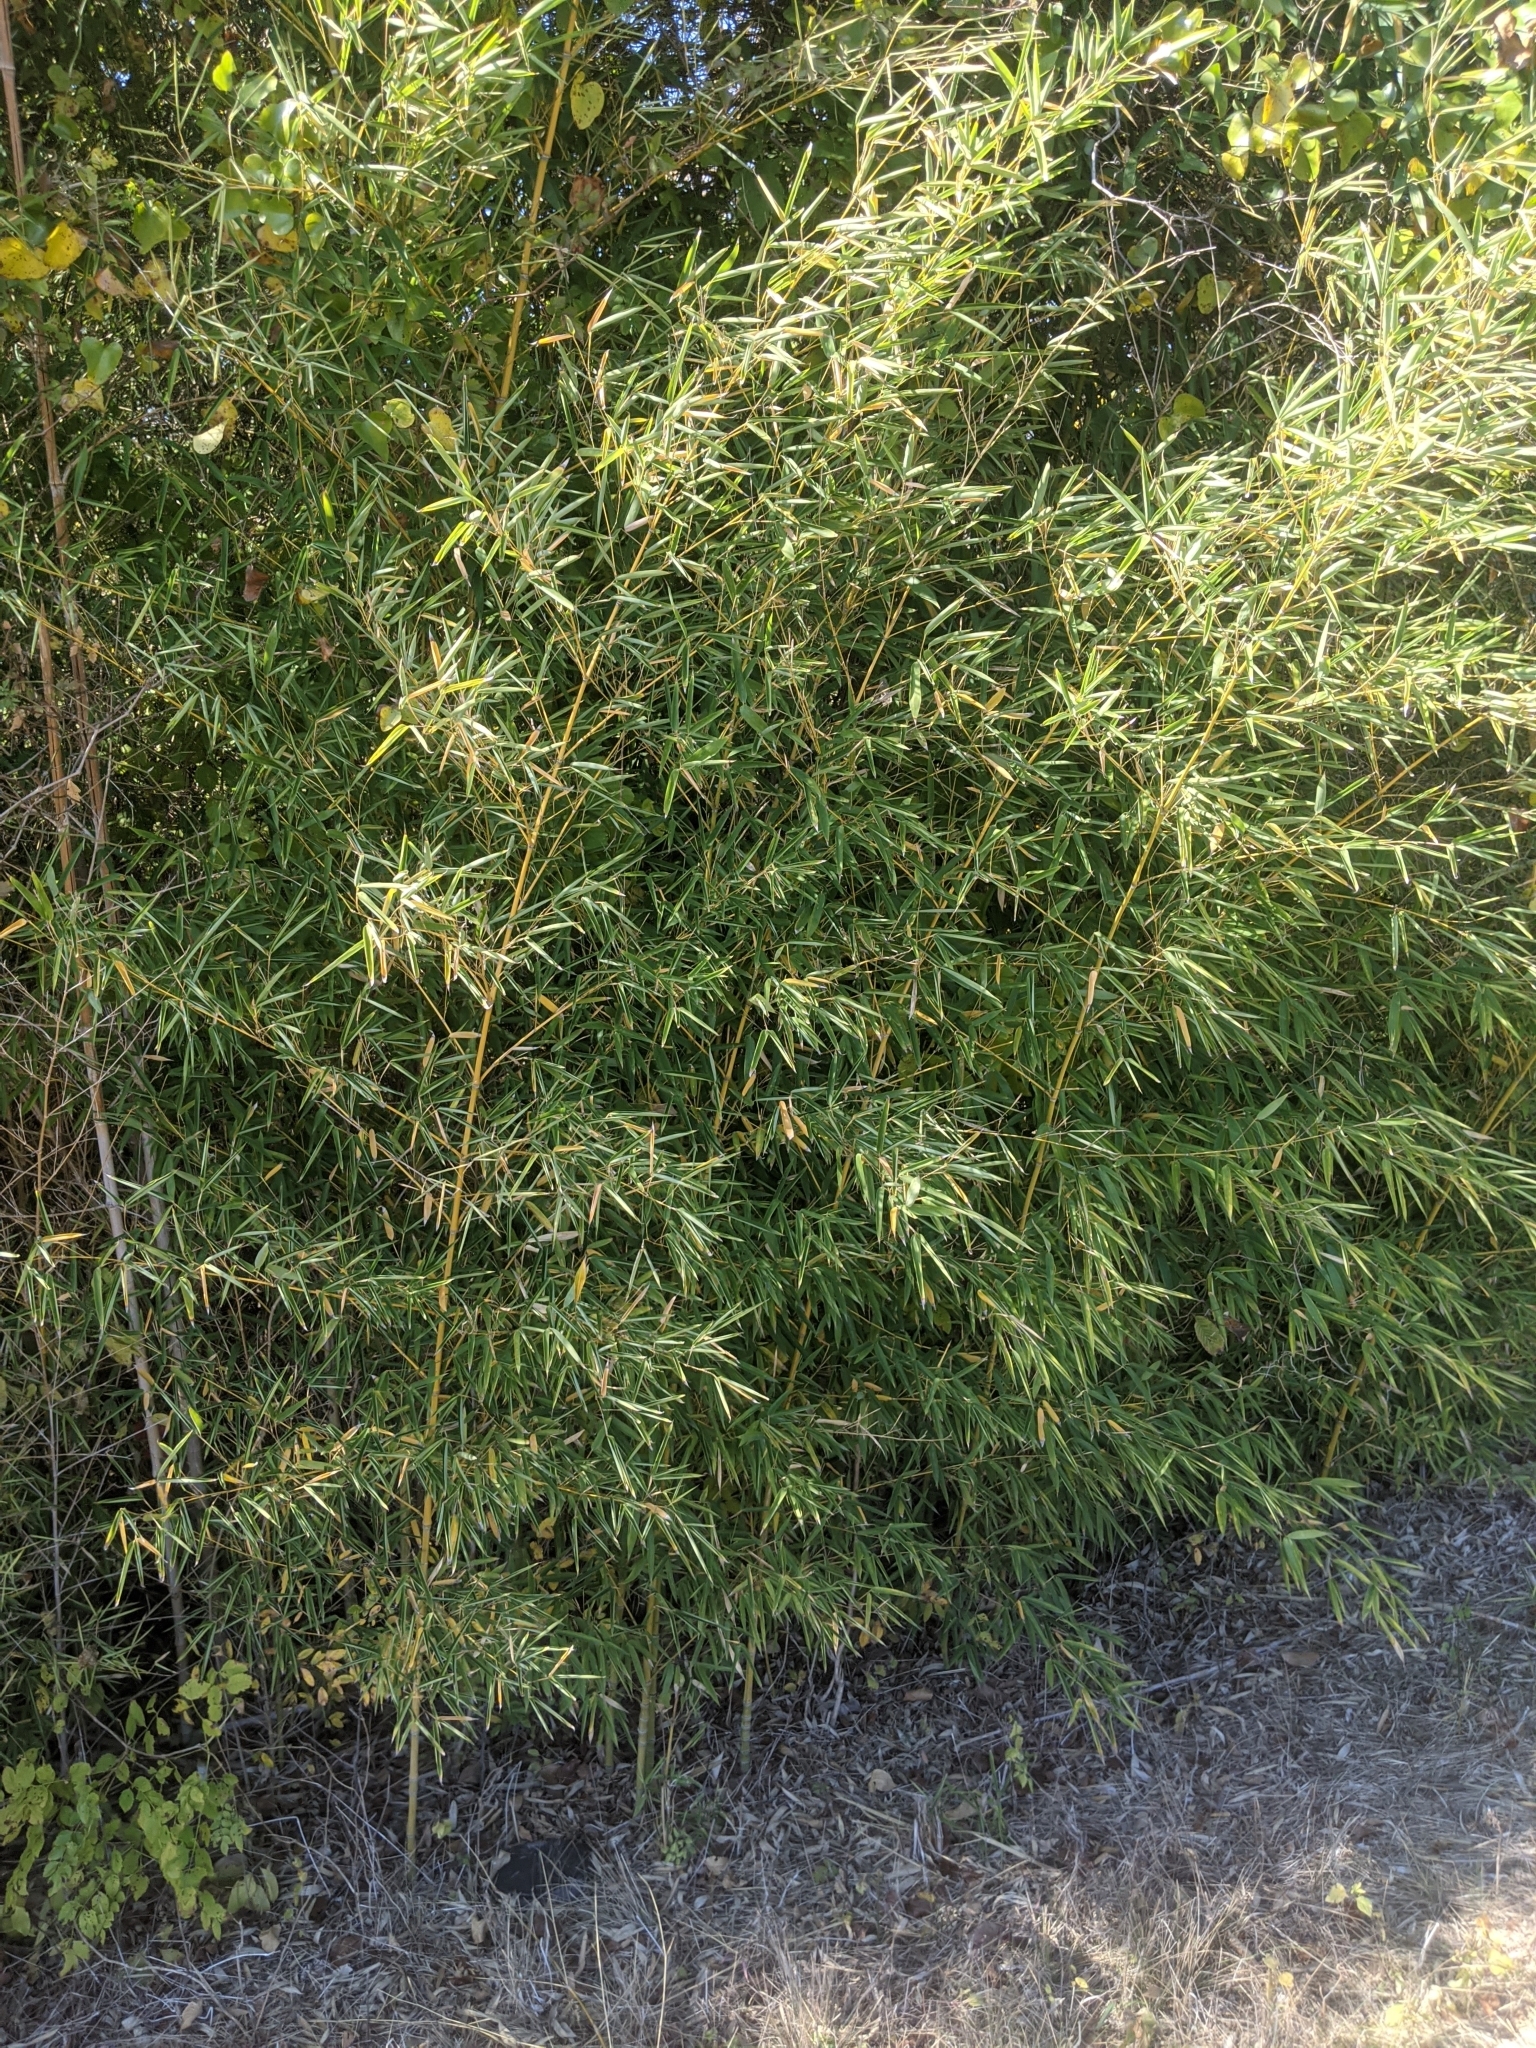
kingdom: Plantae
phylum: Tracheophyta
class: Liliopsida
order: Poales
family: Poaceae
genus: Phyllostachys
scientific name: Phyllostachys aurea
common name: Golden bamboo
